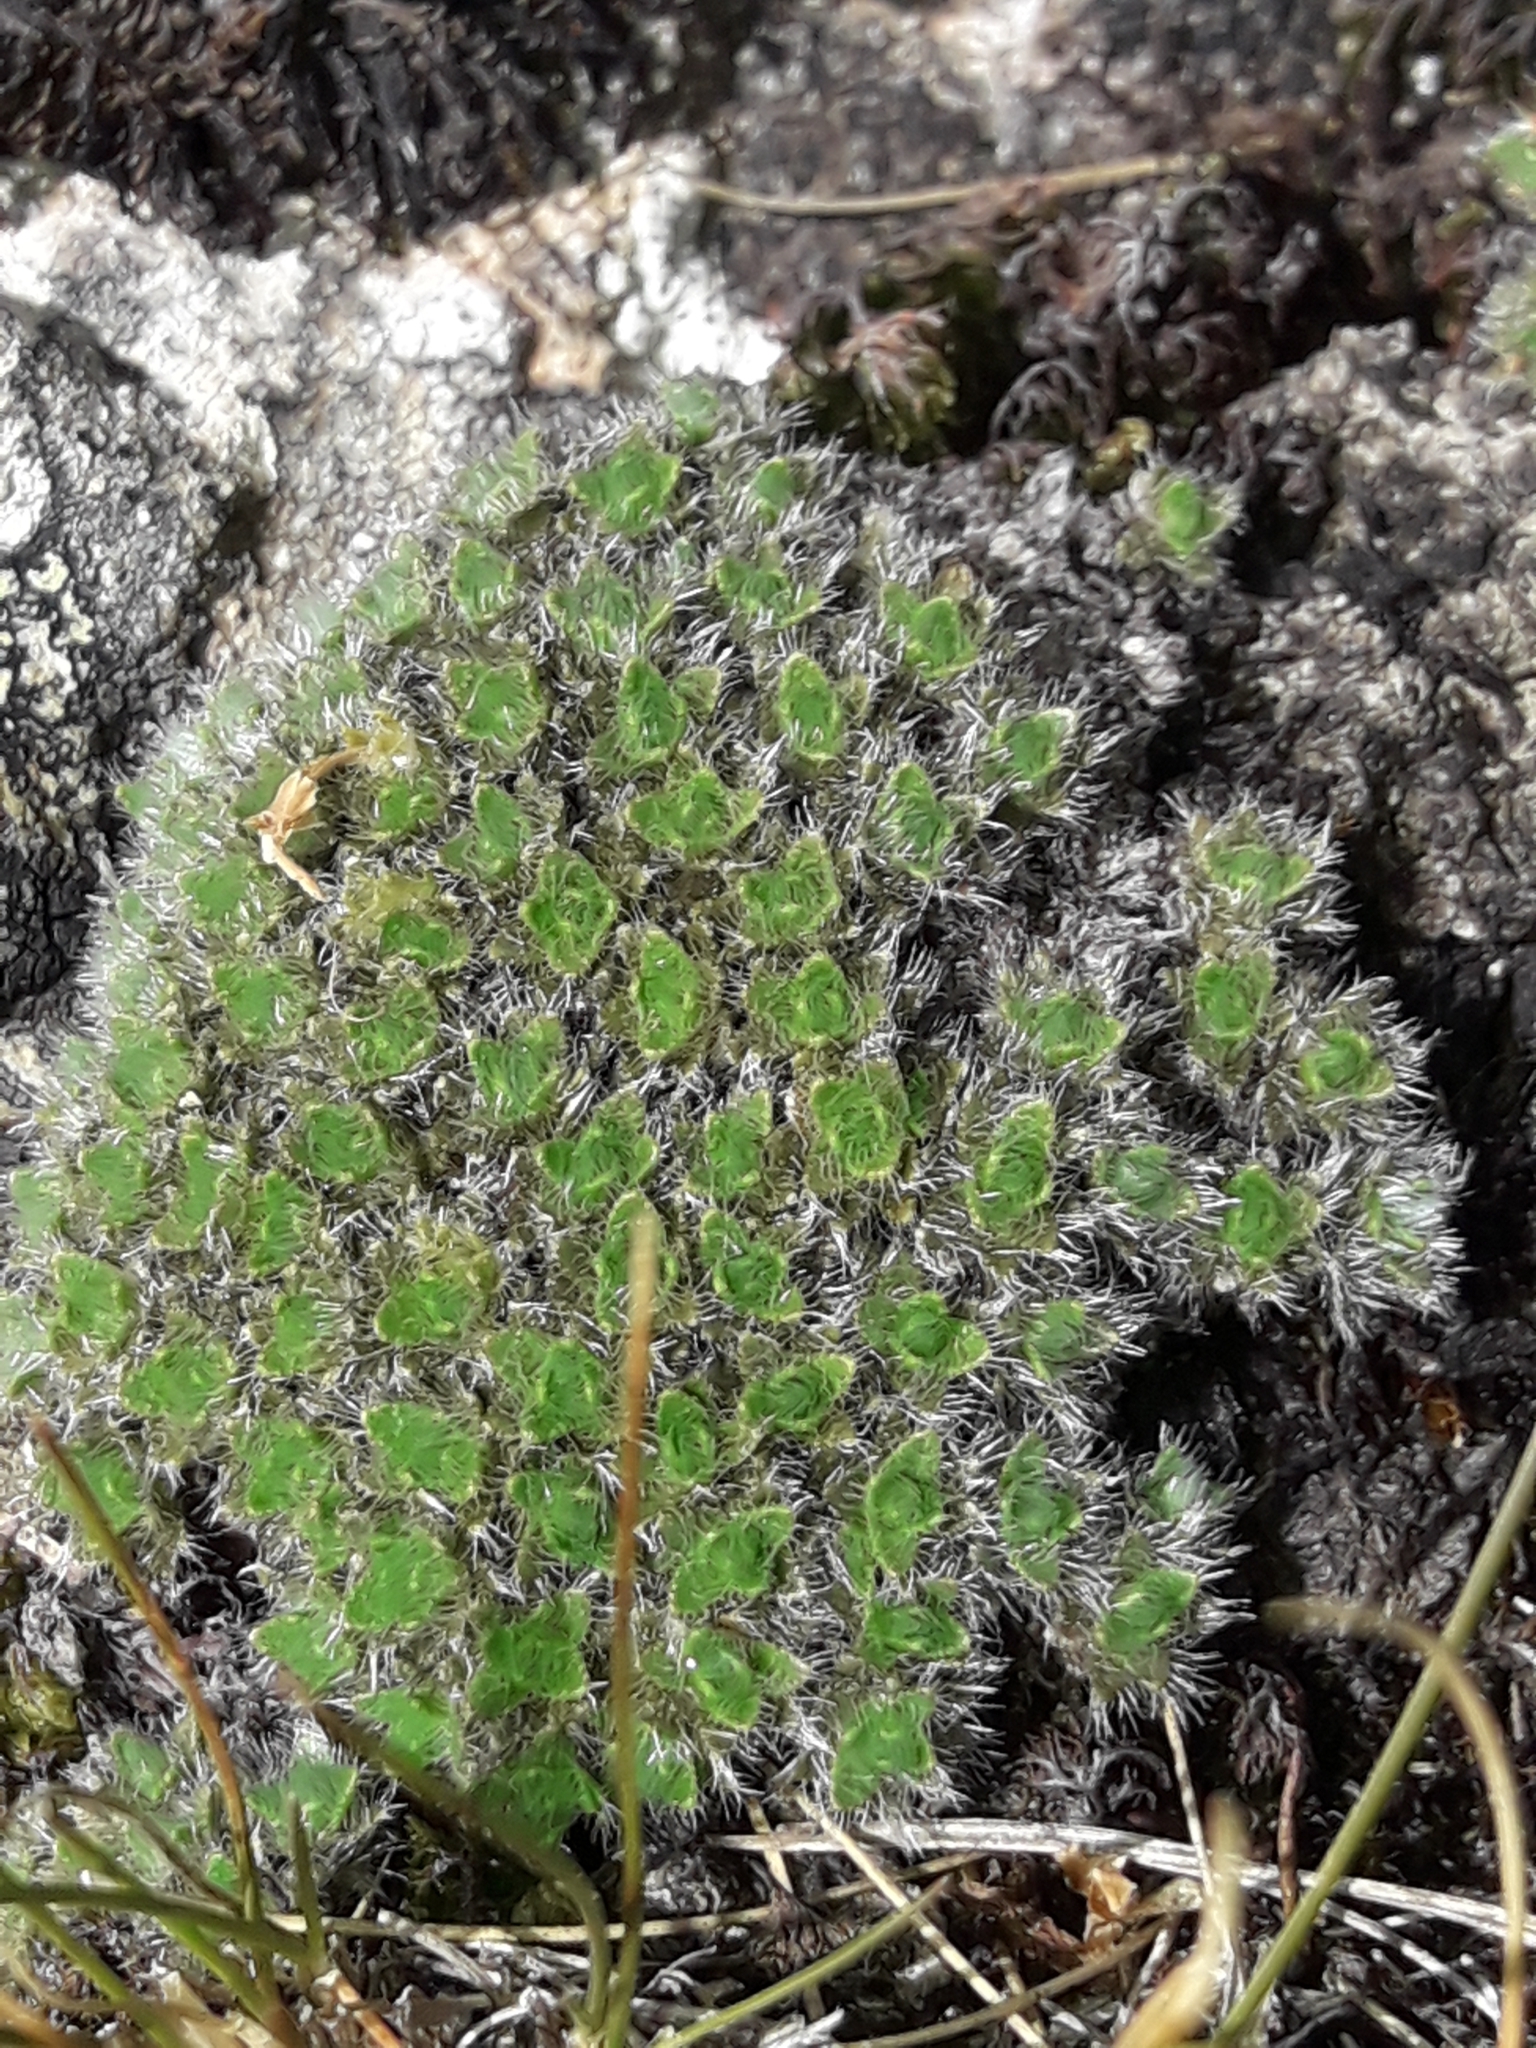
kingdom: Plantae
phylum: Tracheophyta
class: Magnoliopsida
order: Lamiales
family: Plantaginaceae
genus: Veronica
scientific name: Veronica pulvinaris
